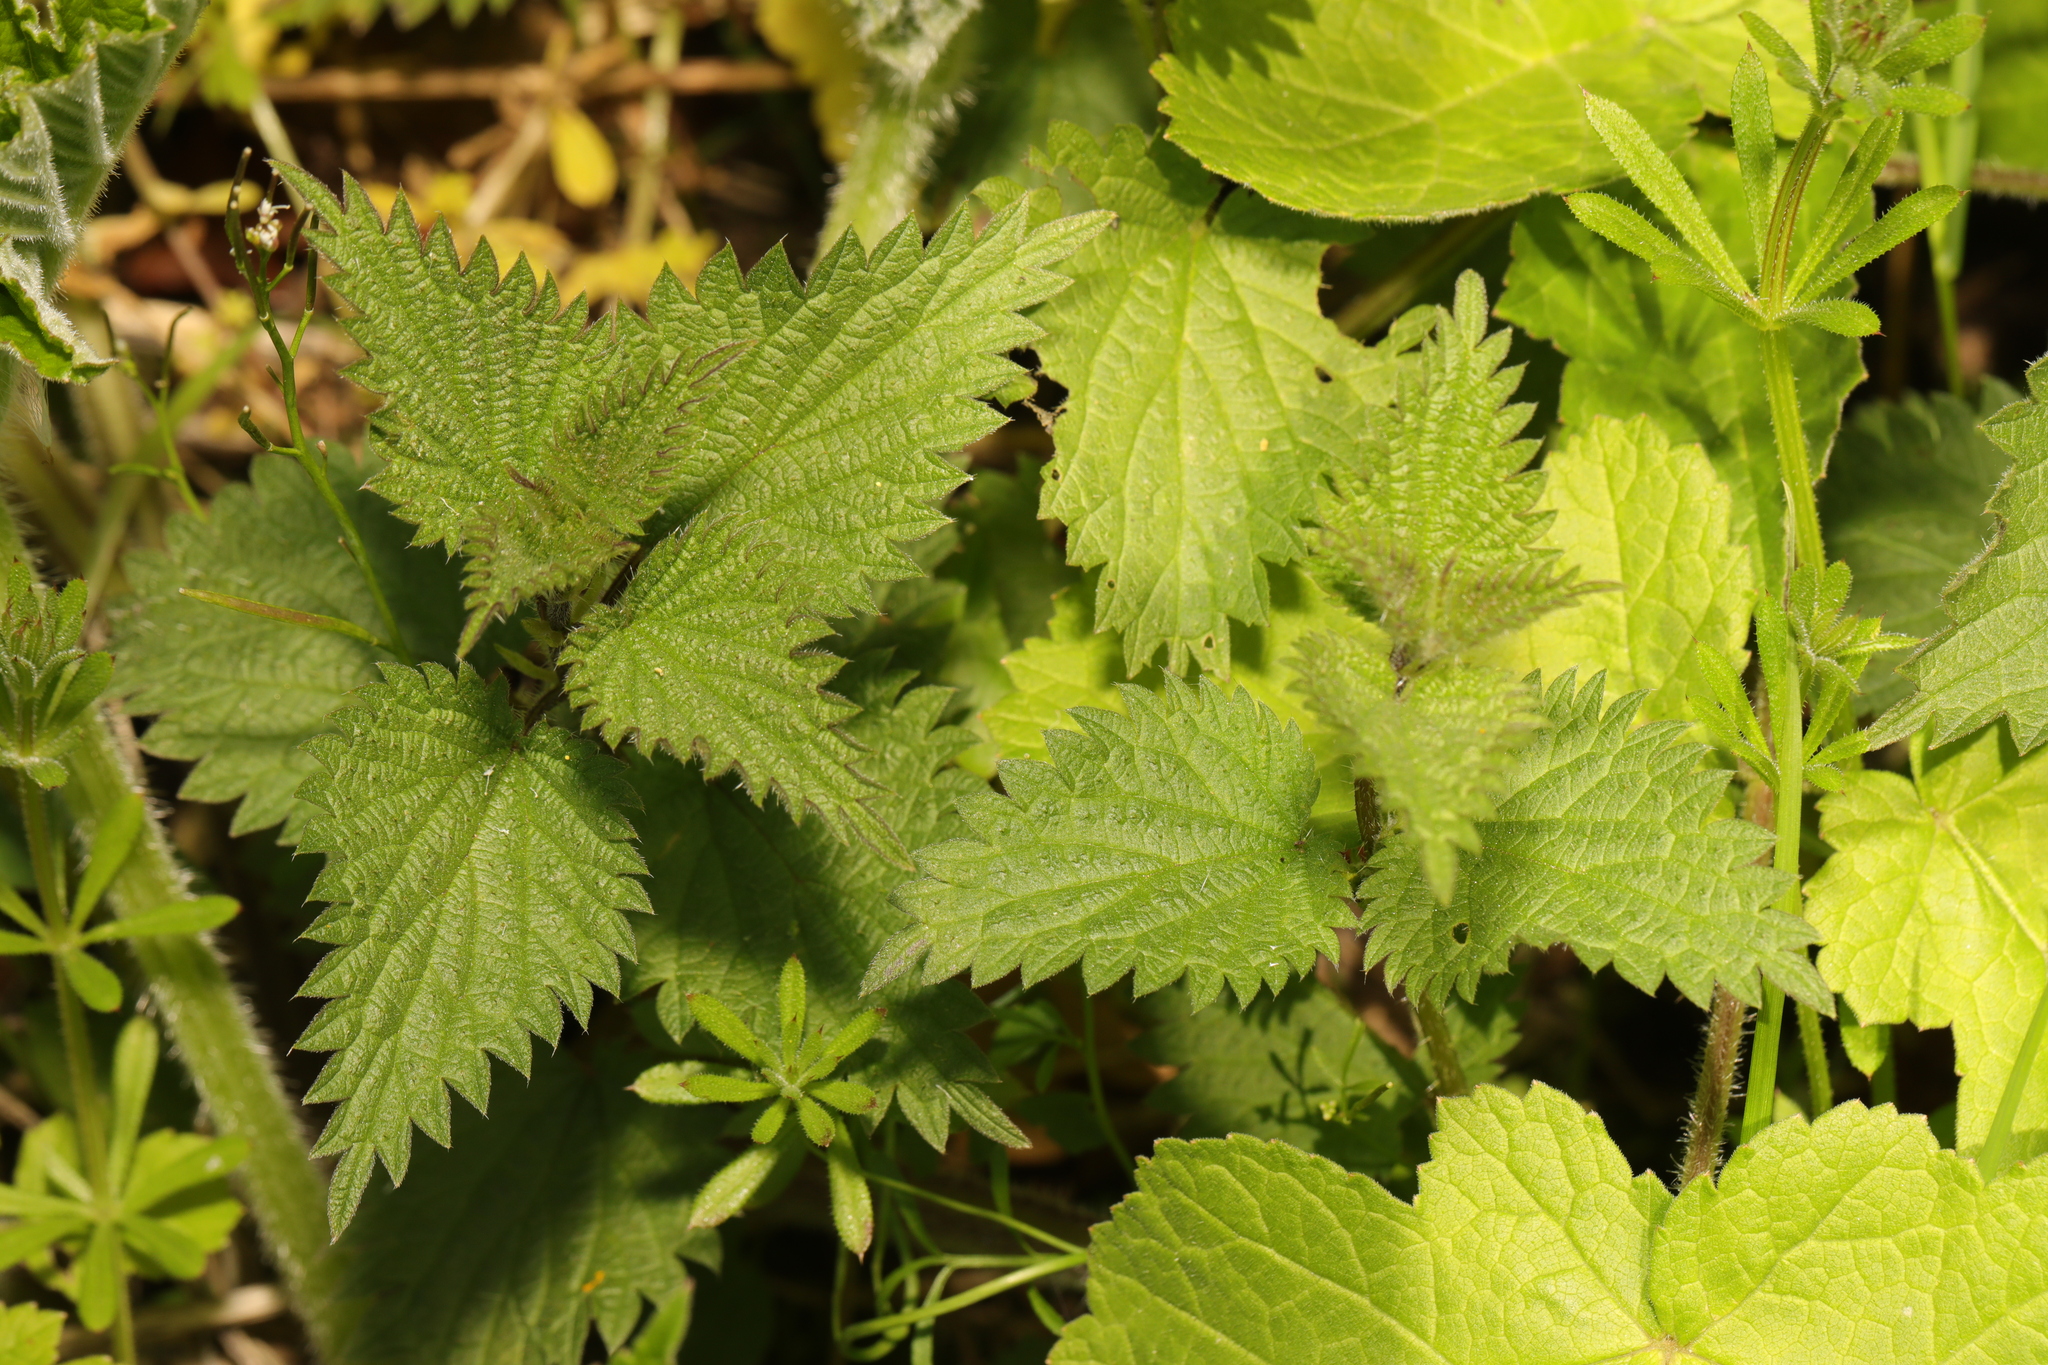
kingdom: Plantae
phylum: Tracheophyta
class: Magnoliopsida
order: Rosales
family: Urticaceae
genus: Urtica
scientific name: Urtica dioica
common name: Common nettle
